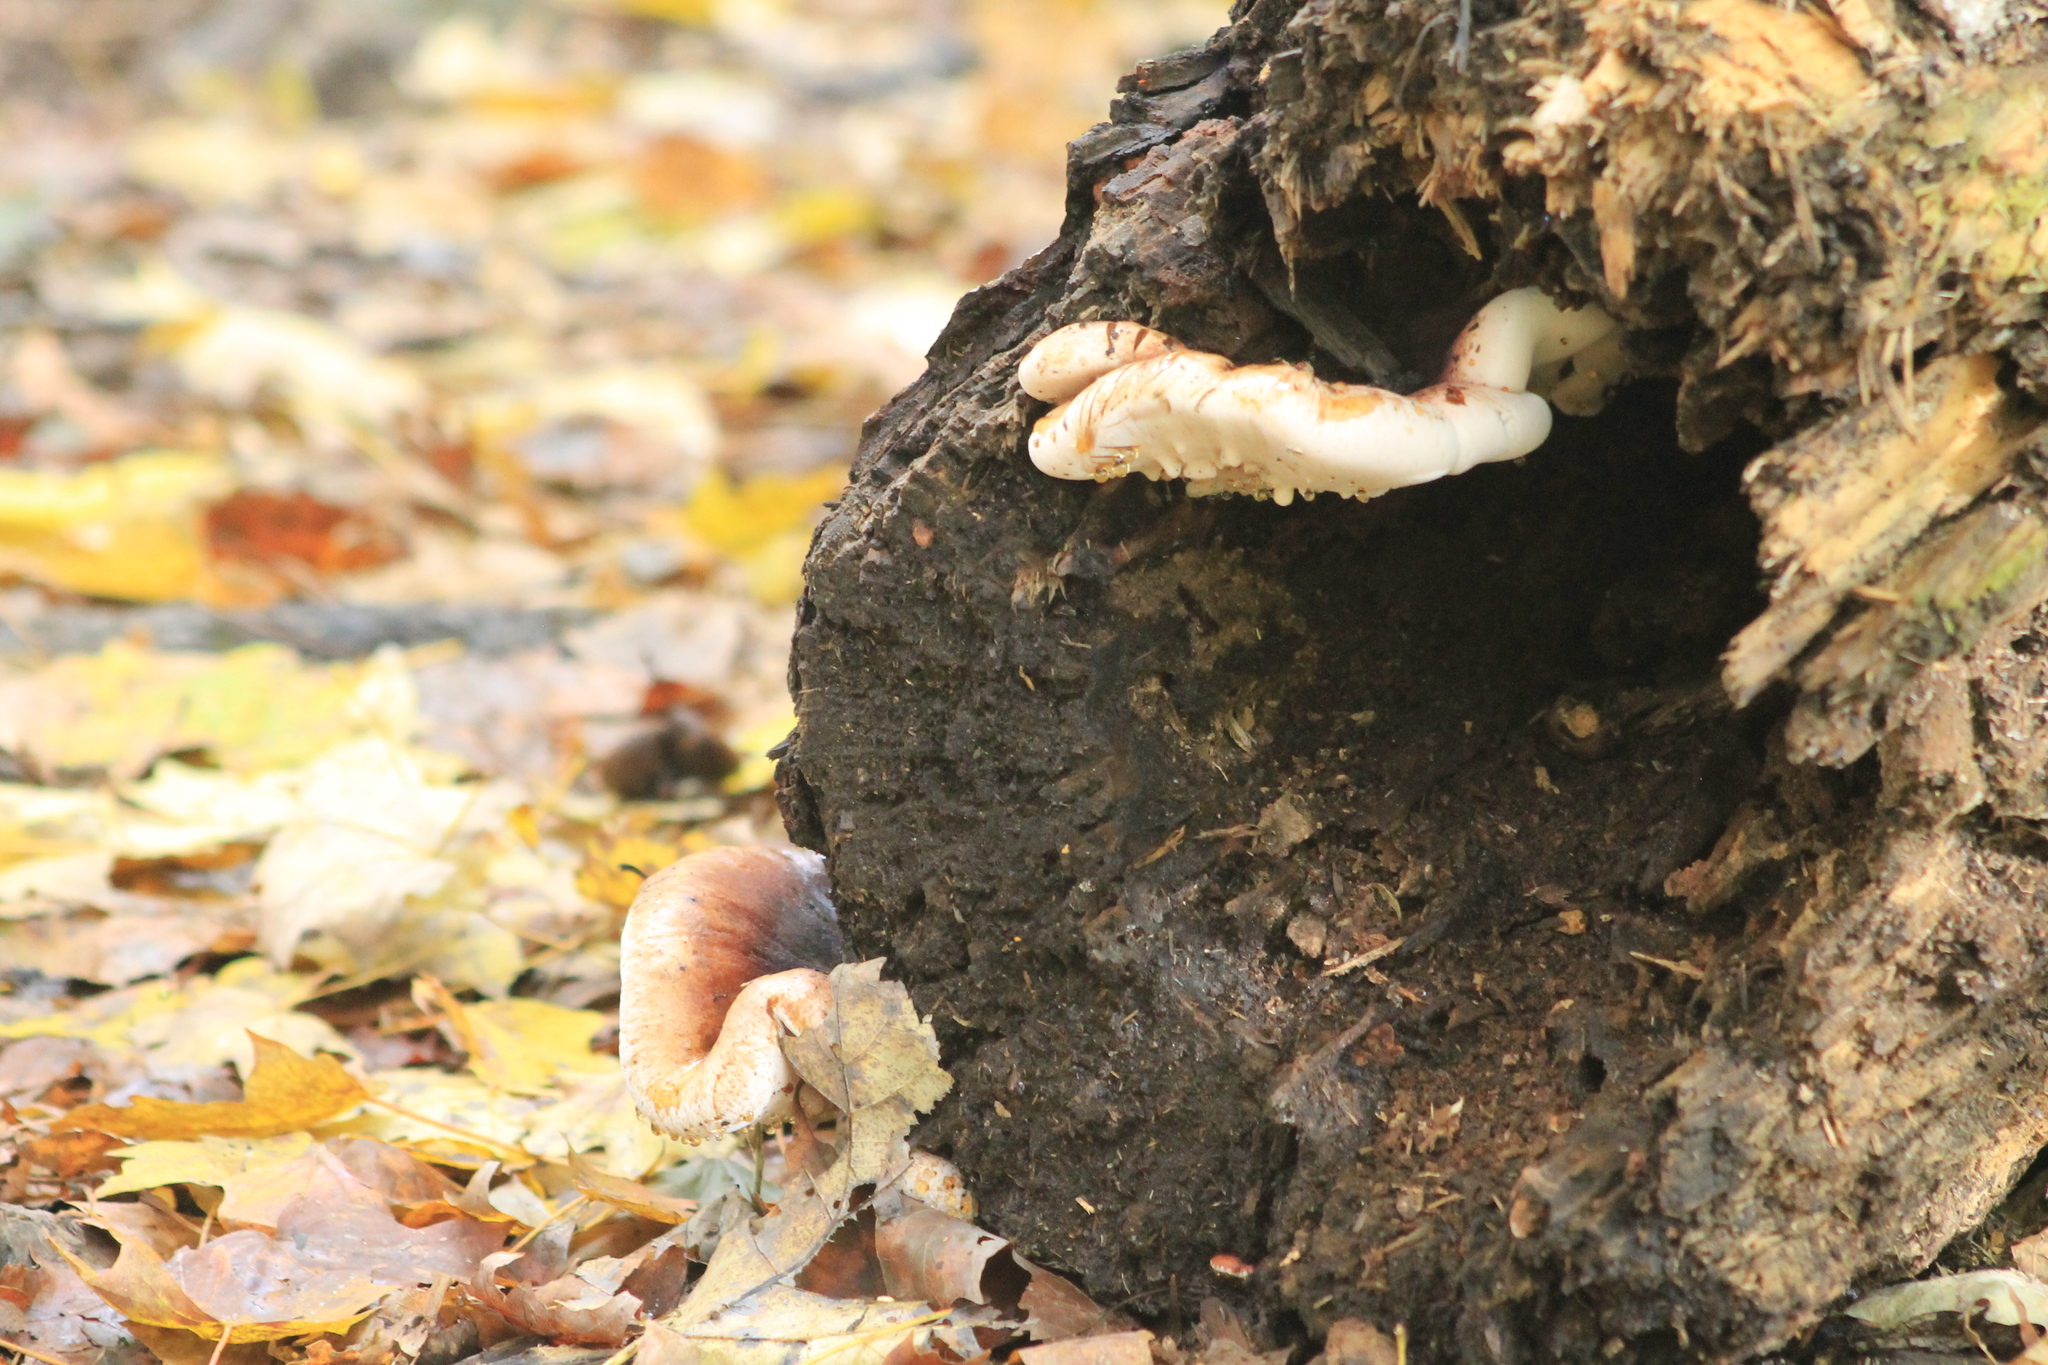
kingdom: Fungi
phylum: Basidiomycota
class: Agaricomycetes
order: Polyporales
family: Ischnodermataceae
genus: Ischnoderma
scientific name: Ischnoderma resinosum
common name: Resinous polypore
